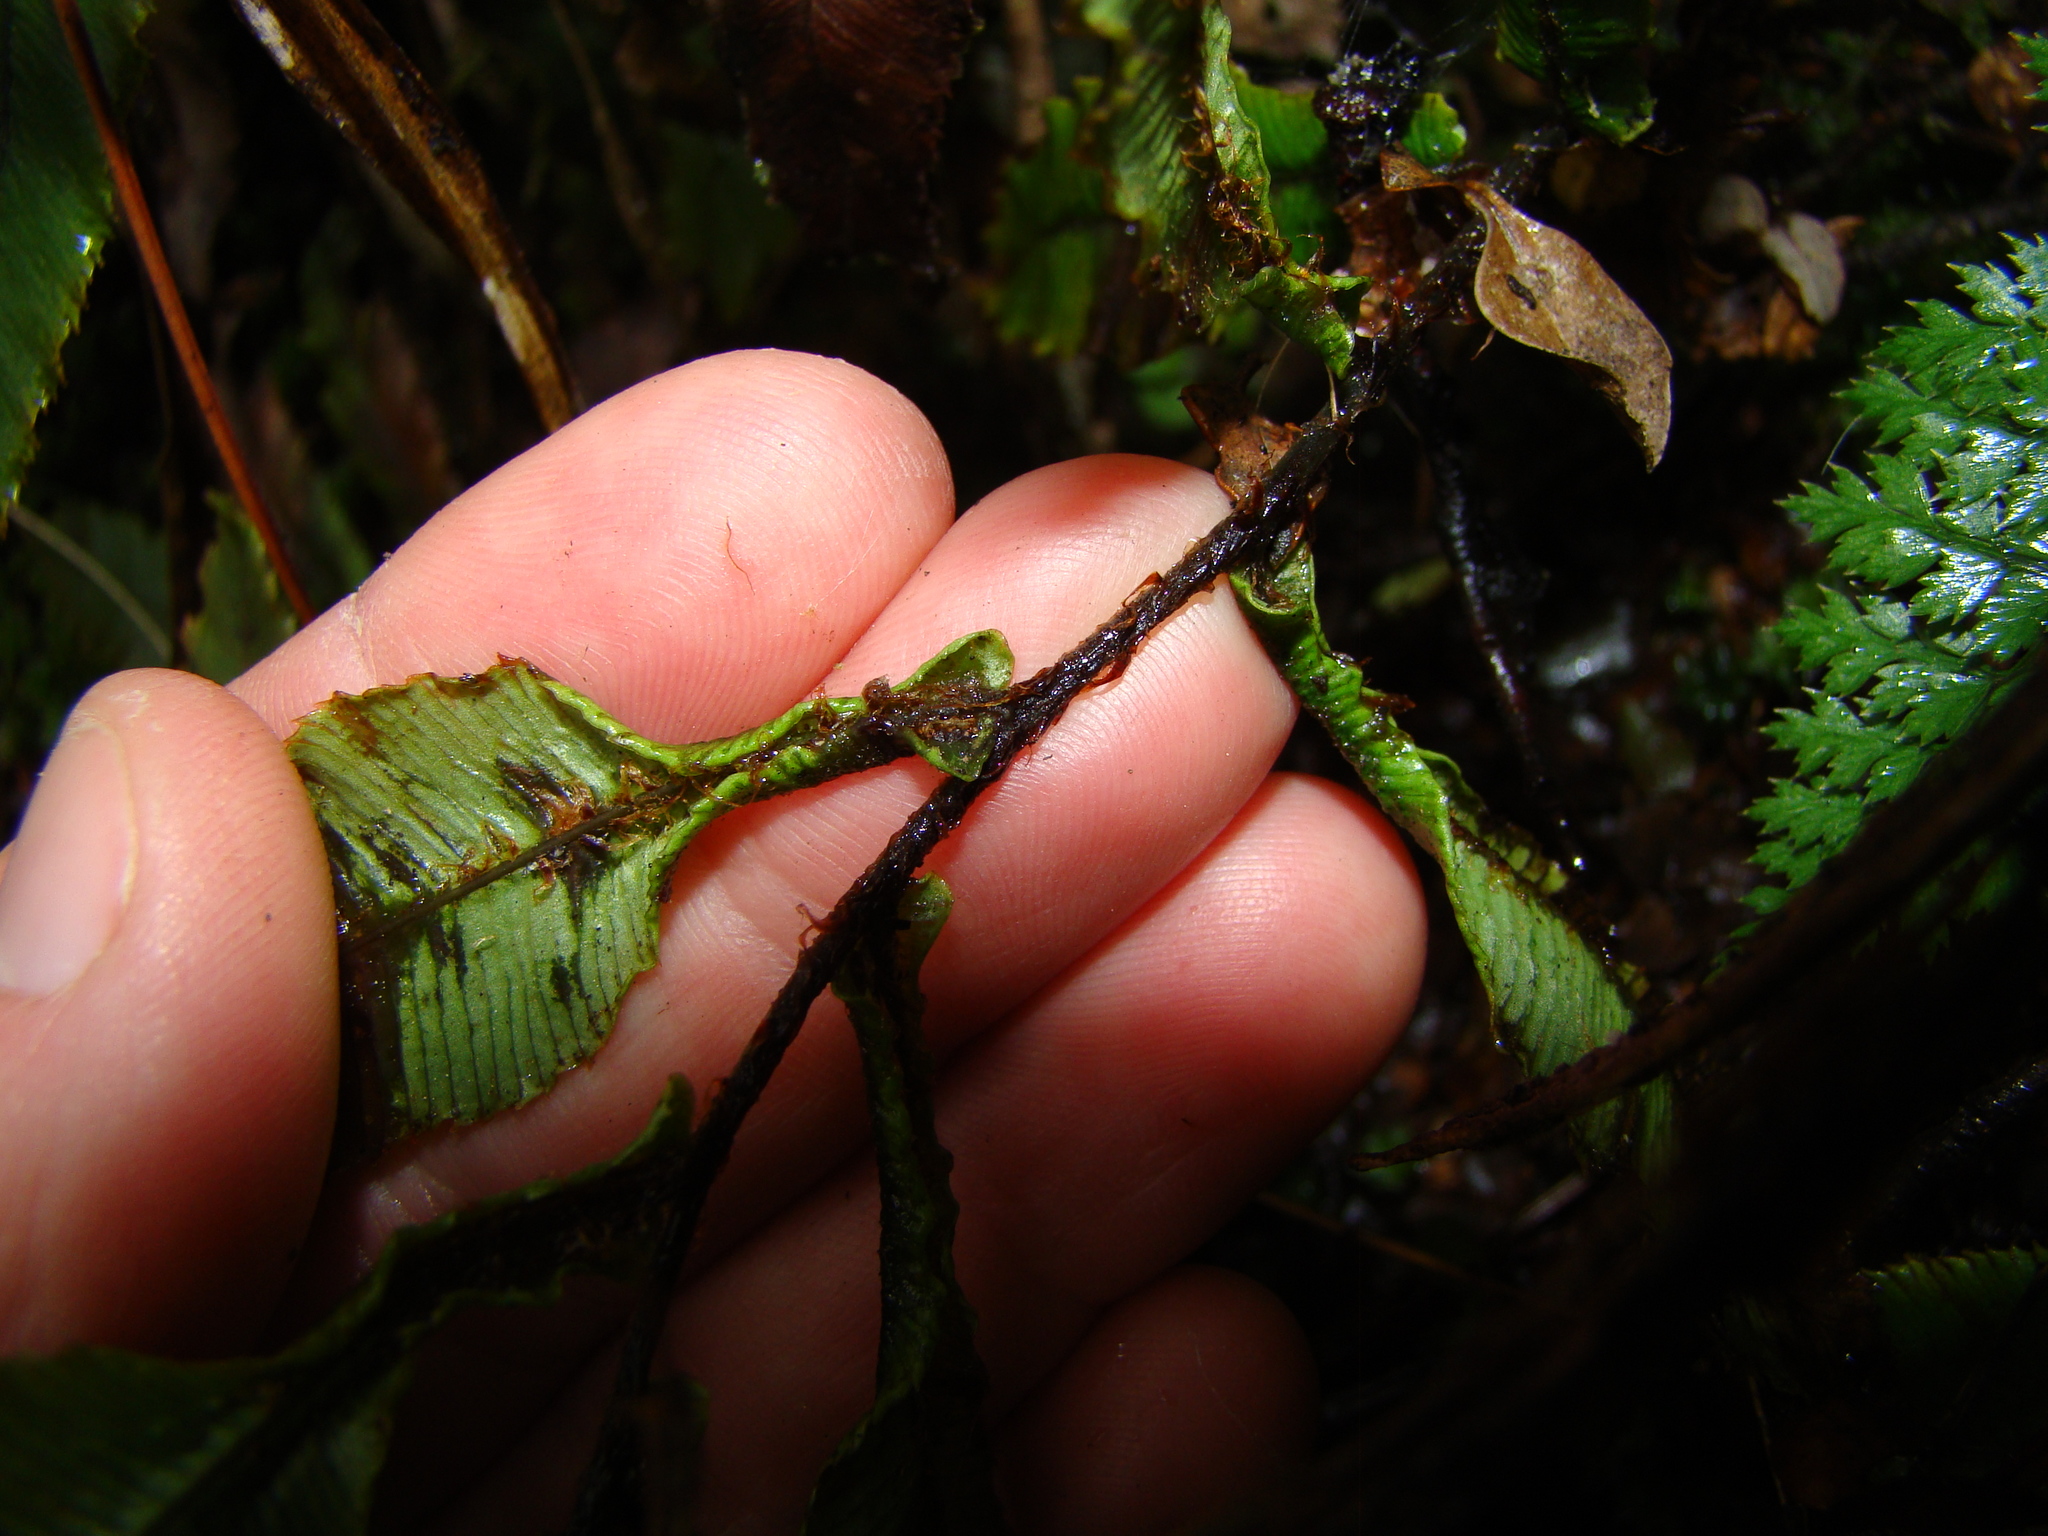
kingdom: Plantae
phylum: Tracheophyta
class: Polypodiopsida
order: Polypodiales
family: Blechnaceae
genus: Parablechnum
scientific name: Parablechnum procerum
